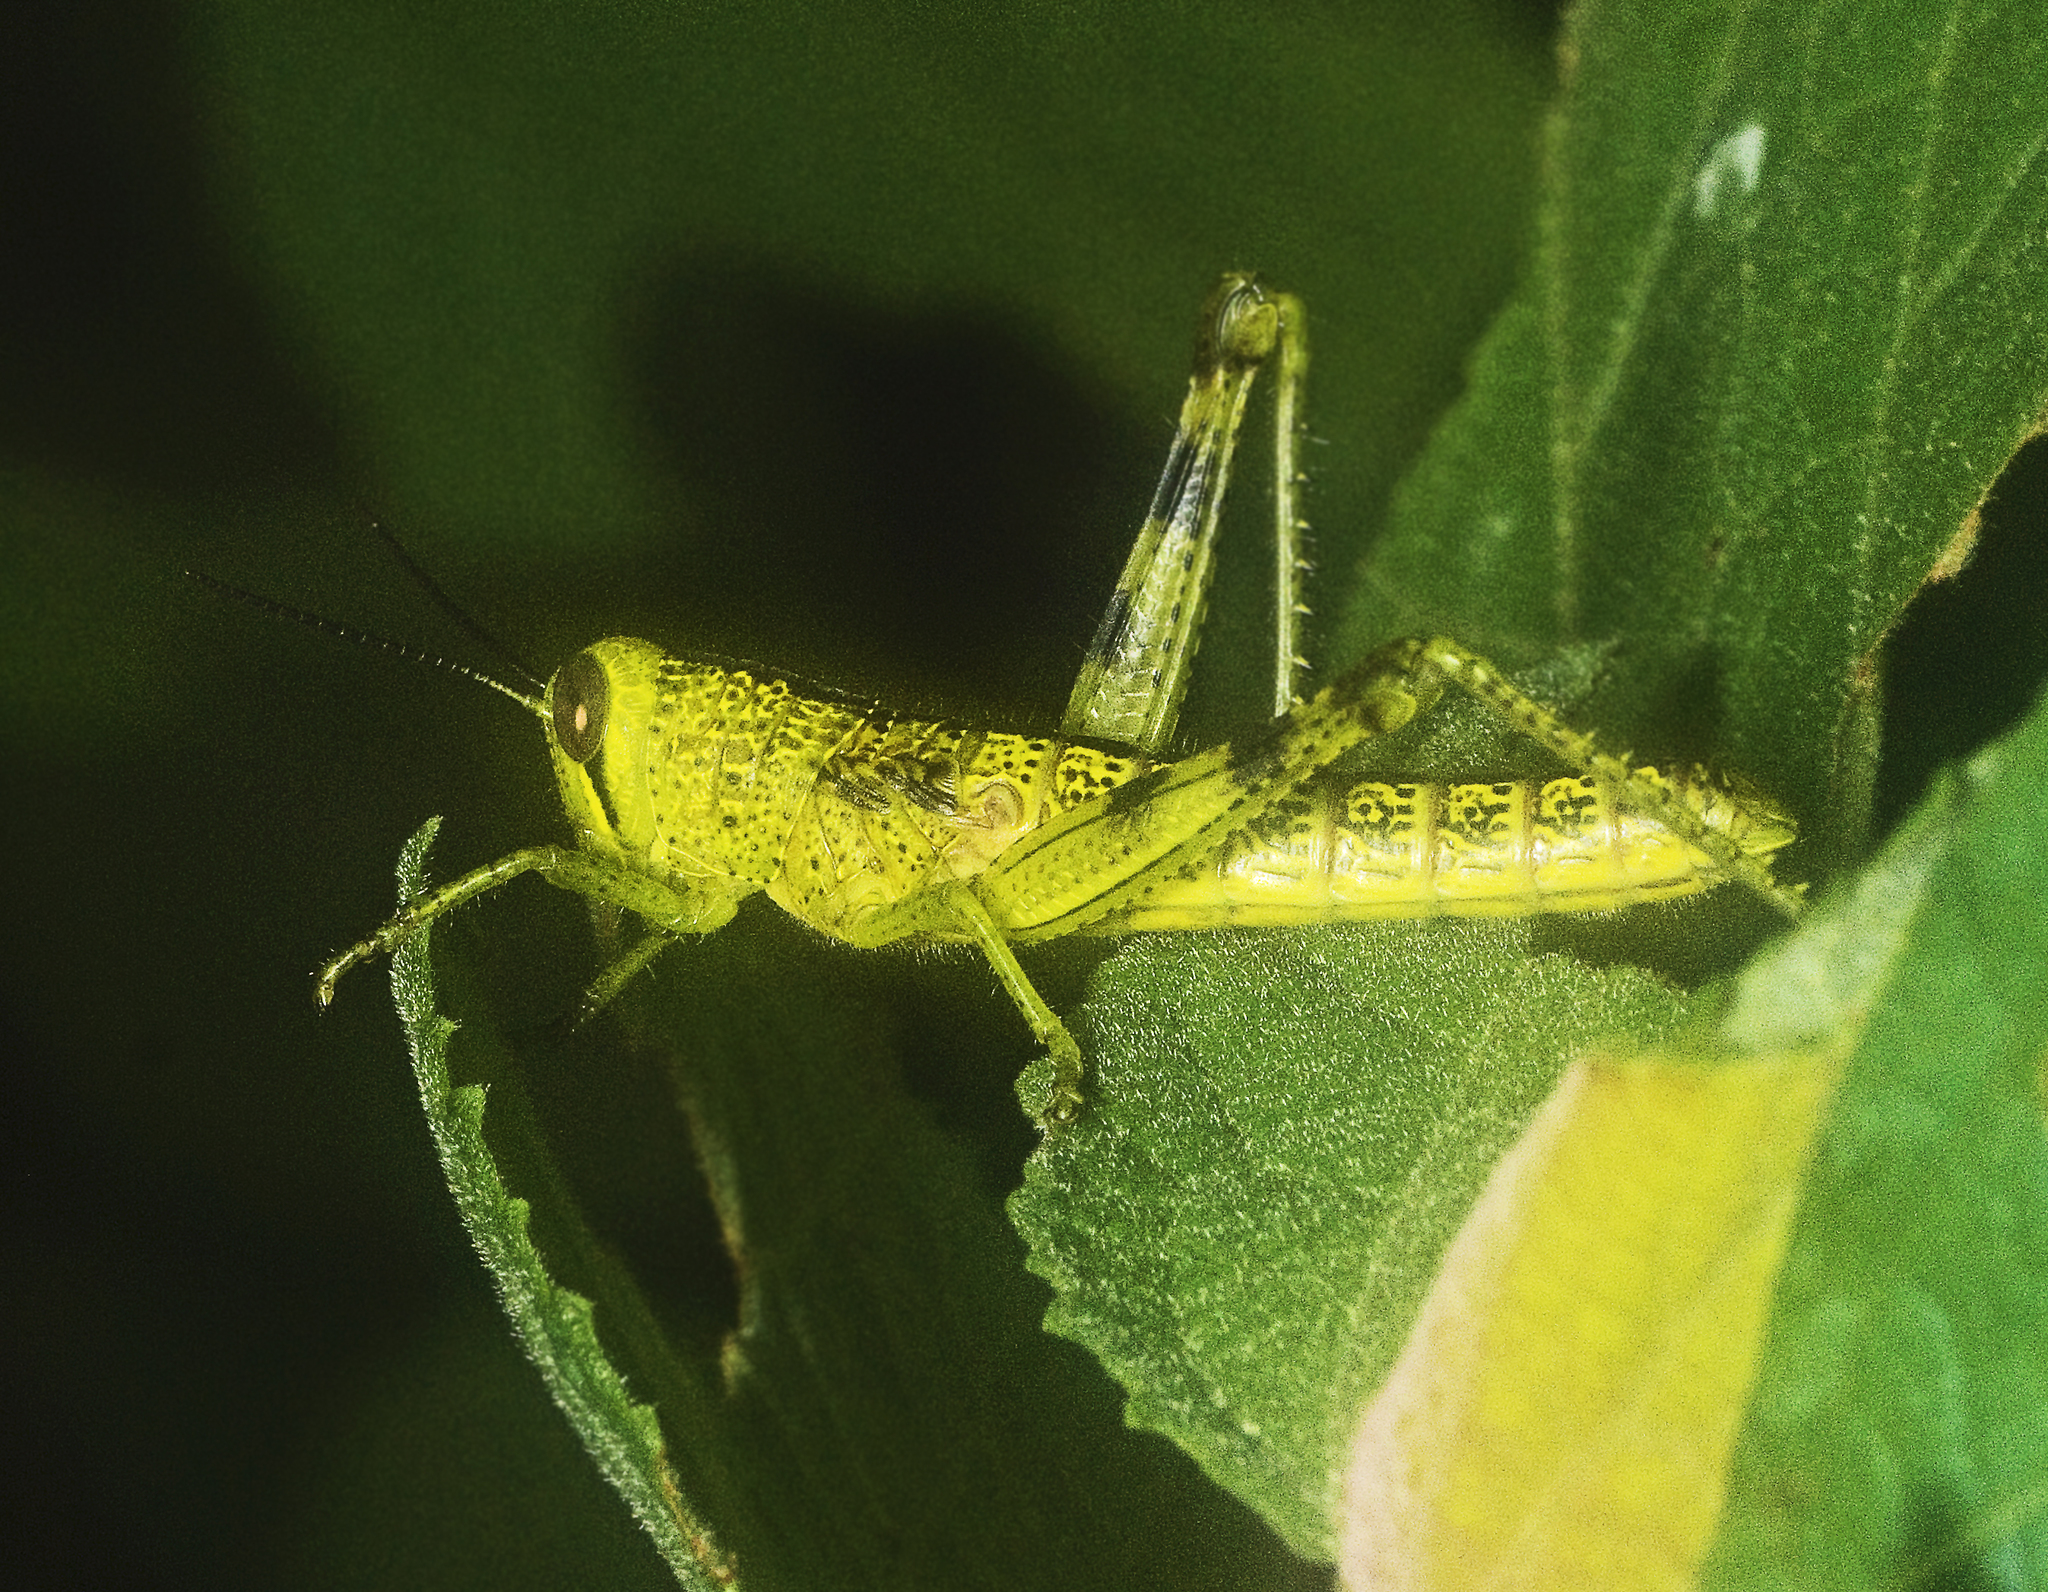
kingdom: Animalia
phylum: Arthropoda
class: Insecta
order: Orthoptera
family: Acrididae
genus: Valanga
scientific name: Valanga irregularis
